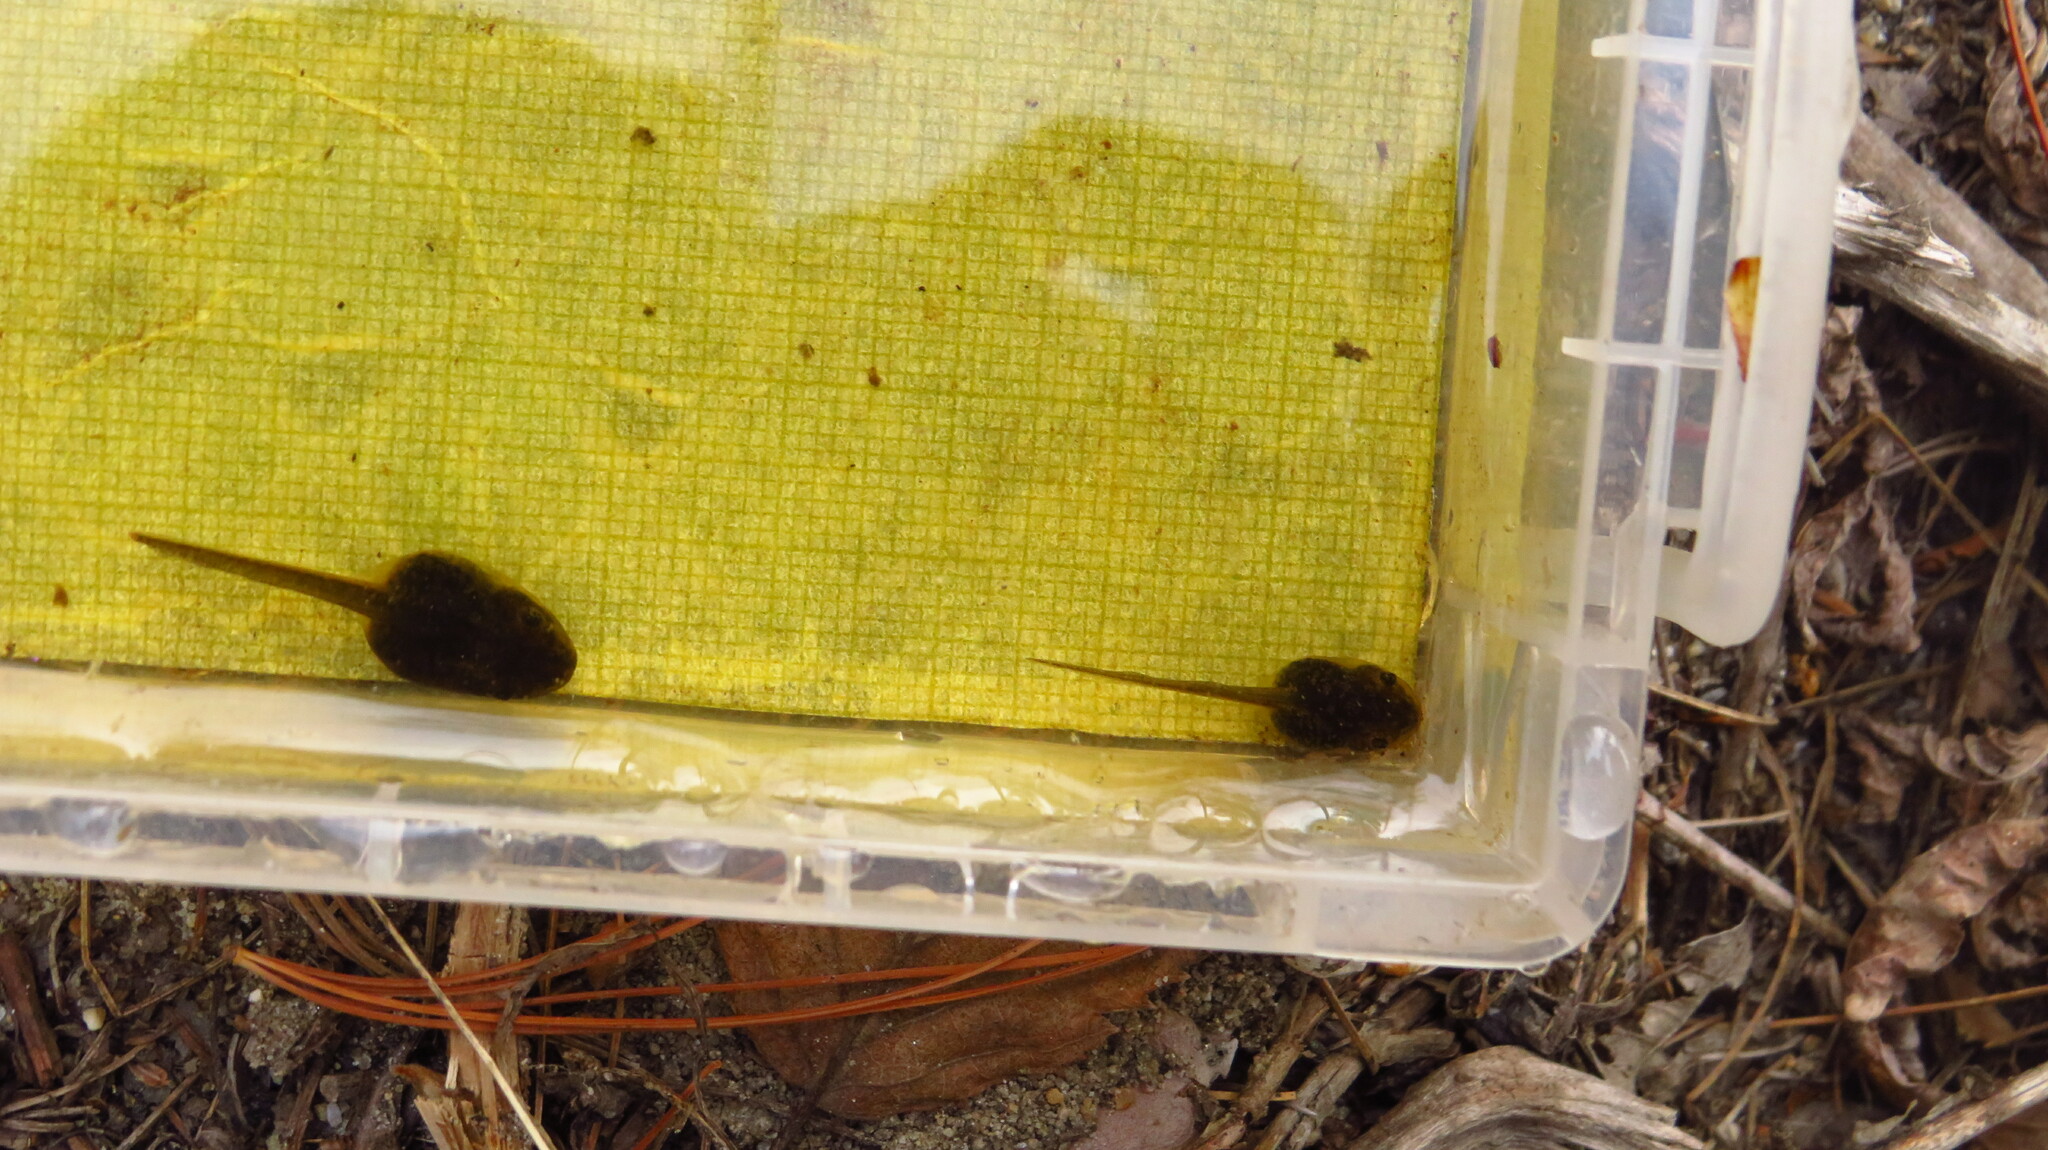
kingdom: Animalia
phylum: Chordata
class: Amphibia
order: Anura
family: Ranidae
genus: Lithobates
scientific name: Lithobates sylvaticus
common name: Wood frog
